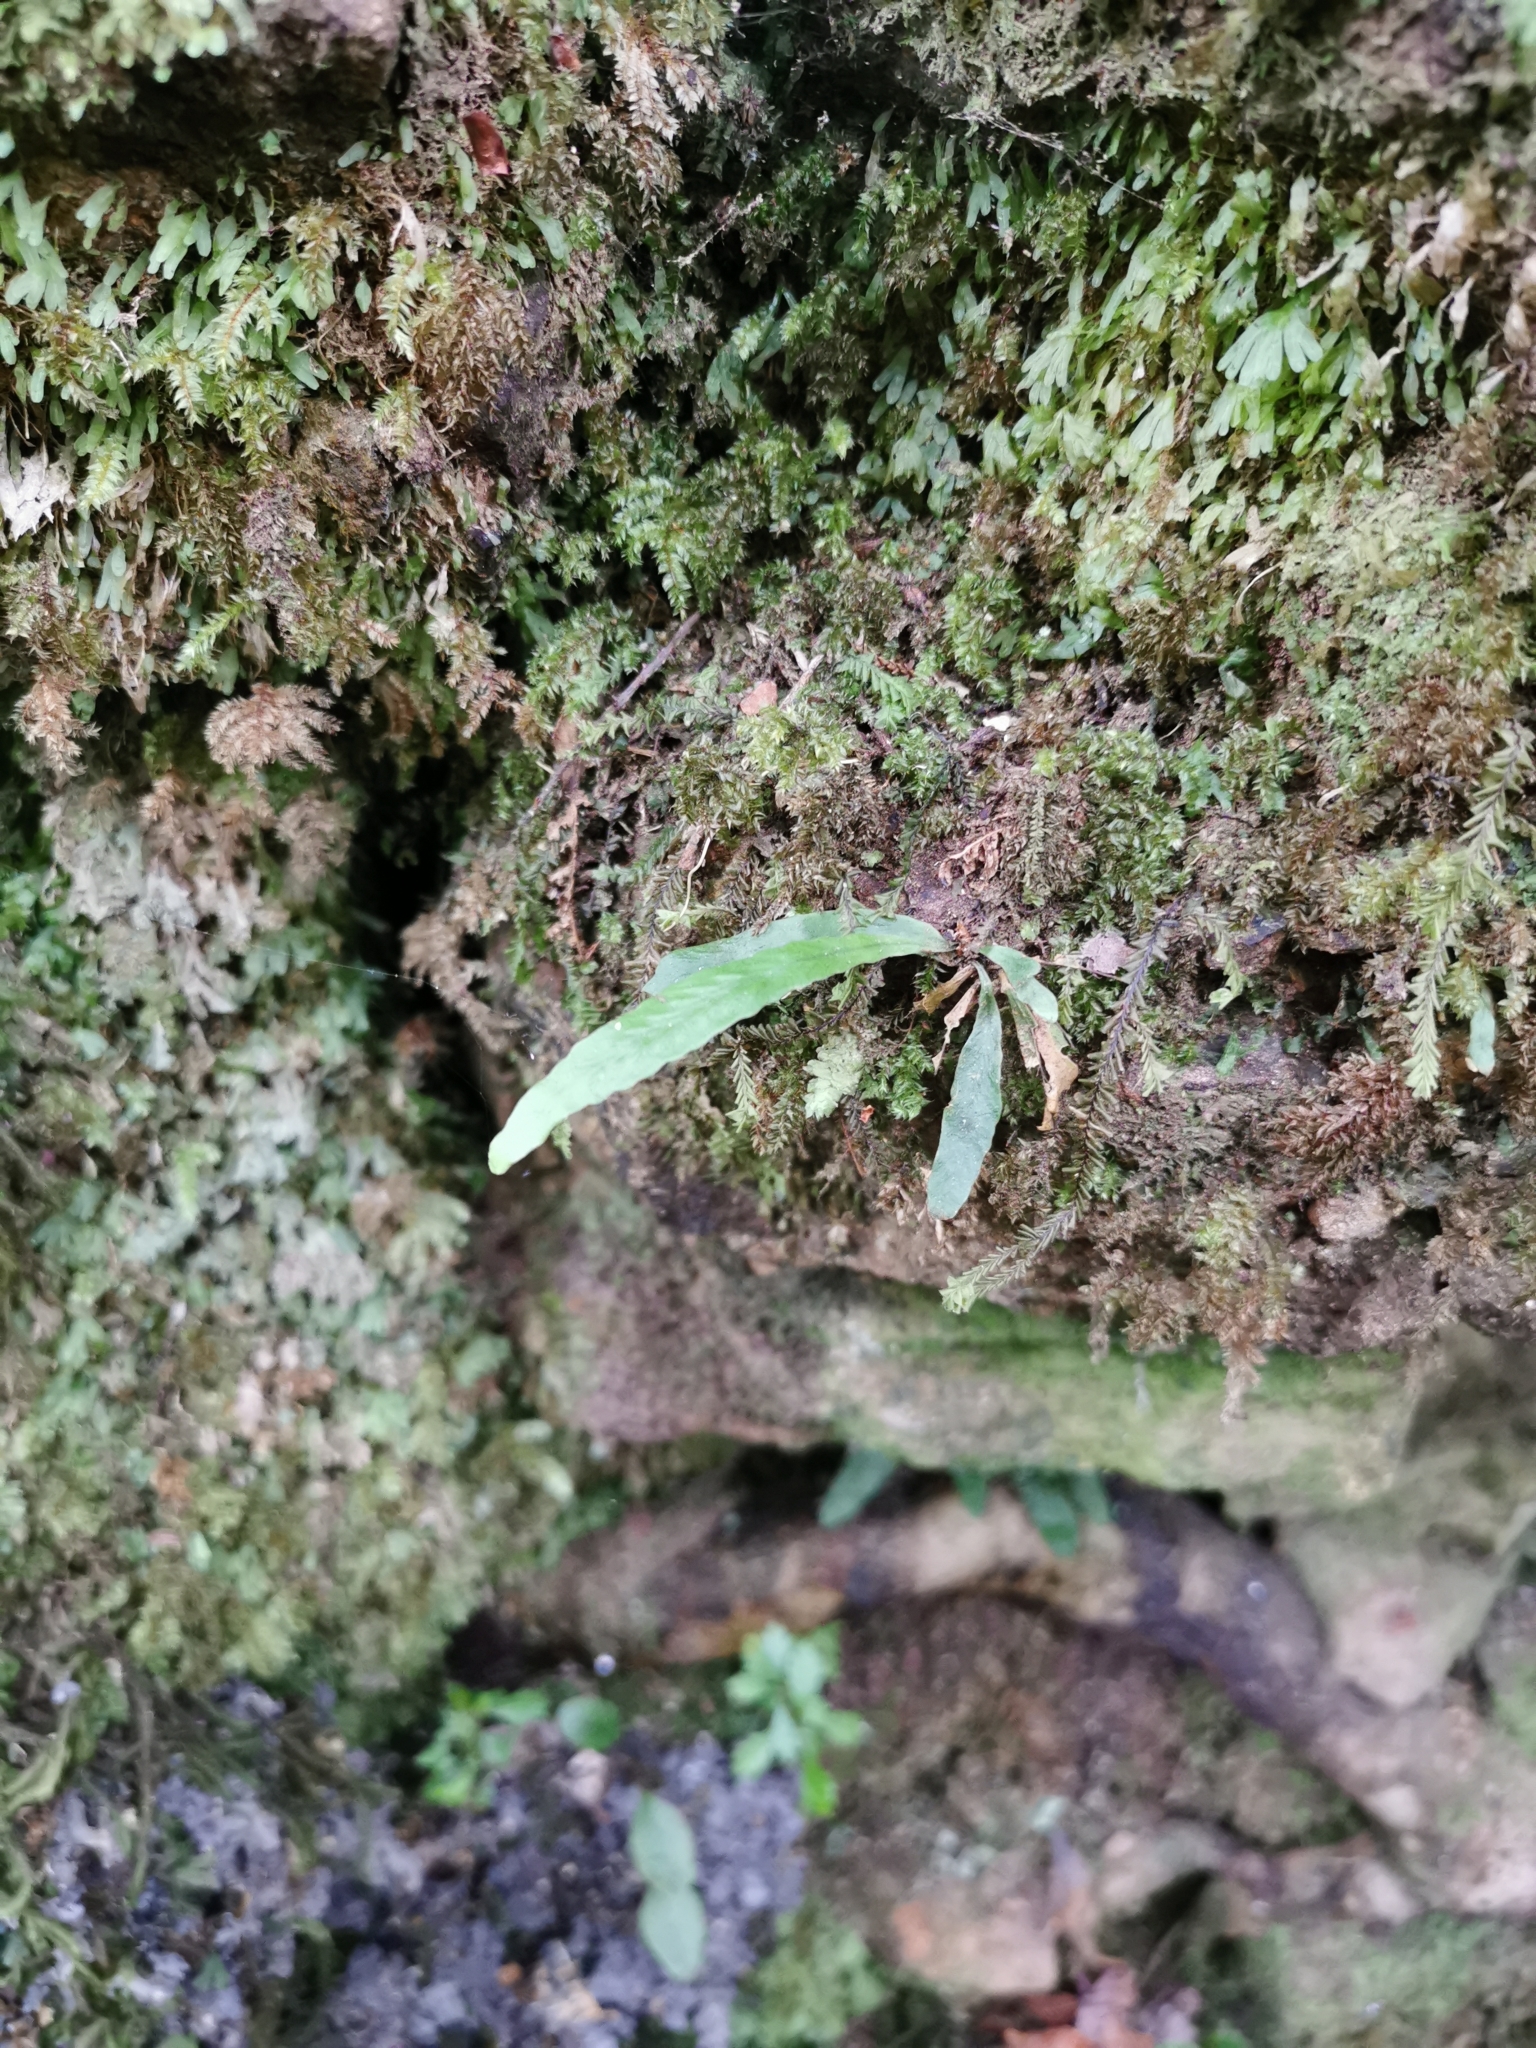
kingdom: Plantae
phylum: Tracheophyta
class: Polypodiopsida
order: Polypodiales
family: Polypodiaceae
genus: Notogrammitis
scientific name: Notogrammitis billardierei
